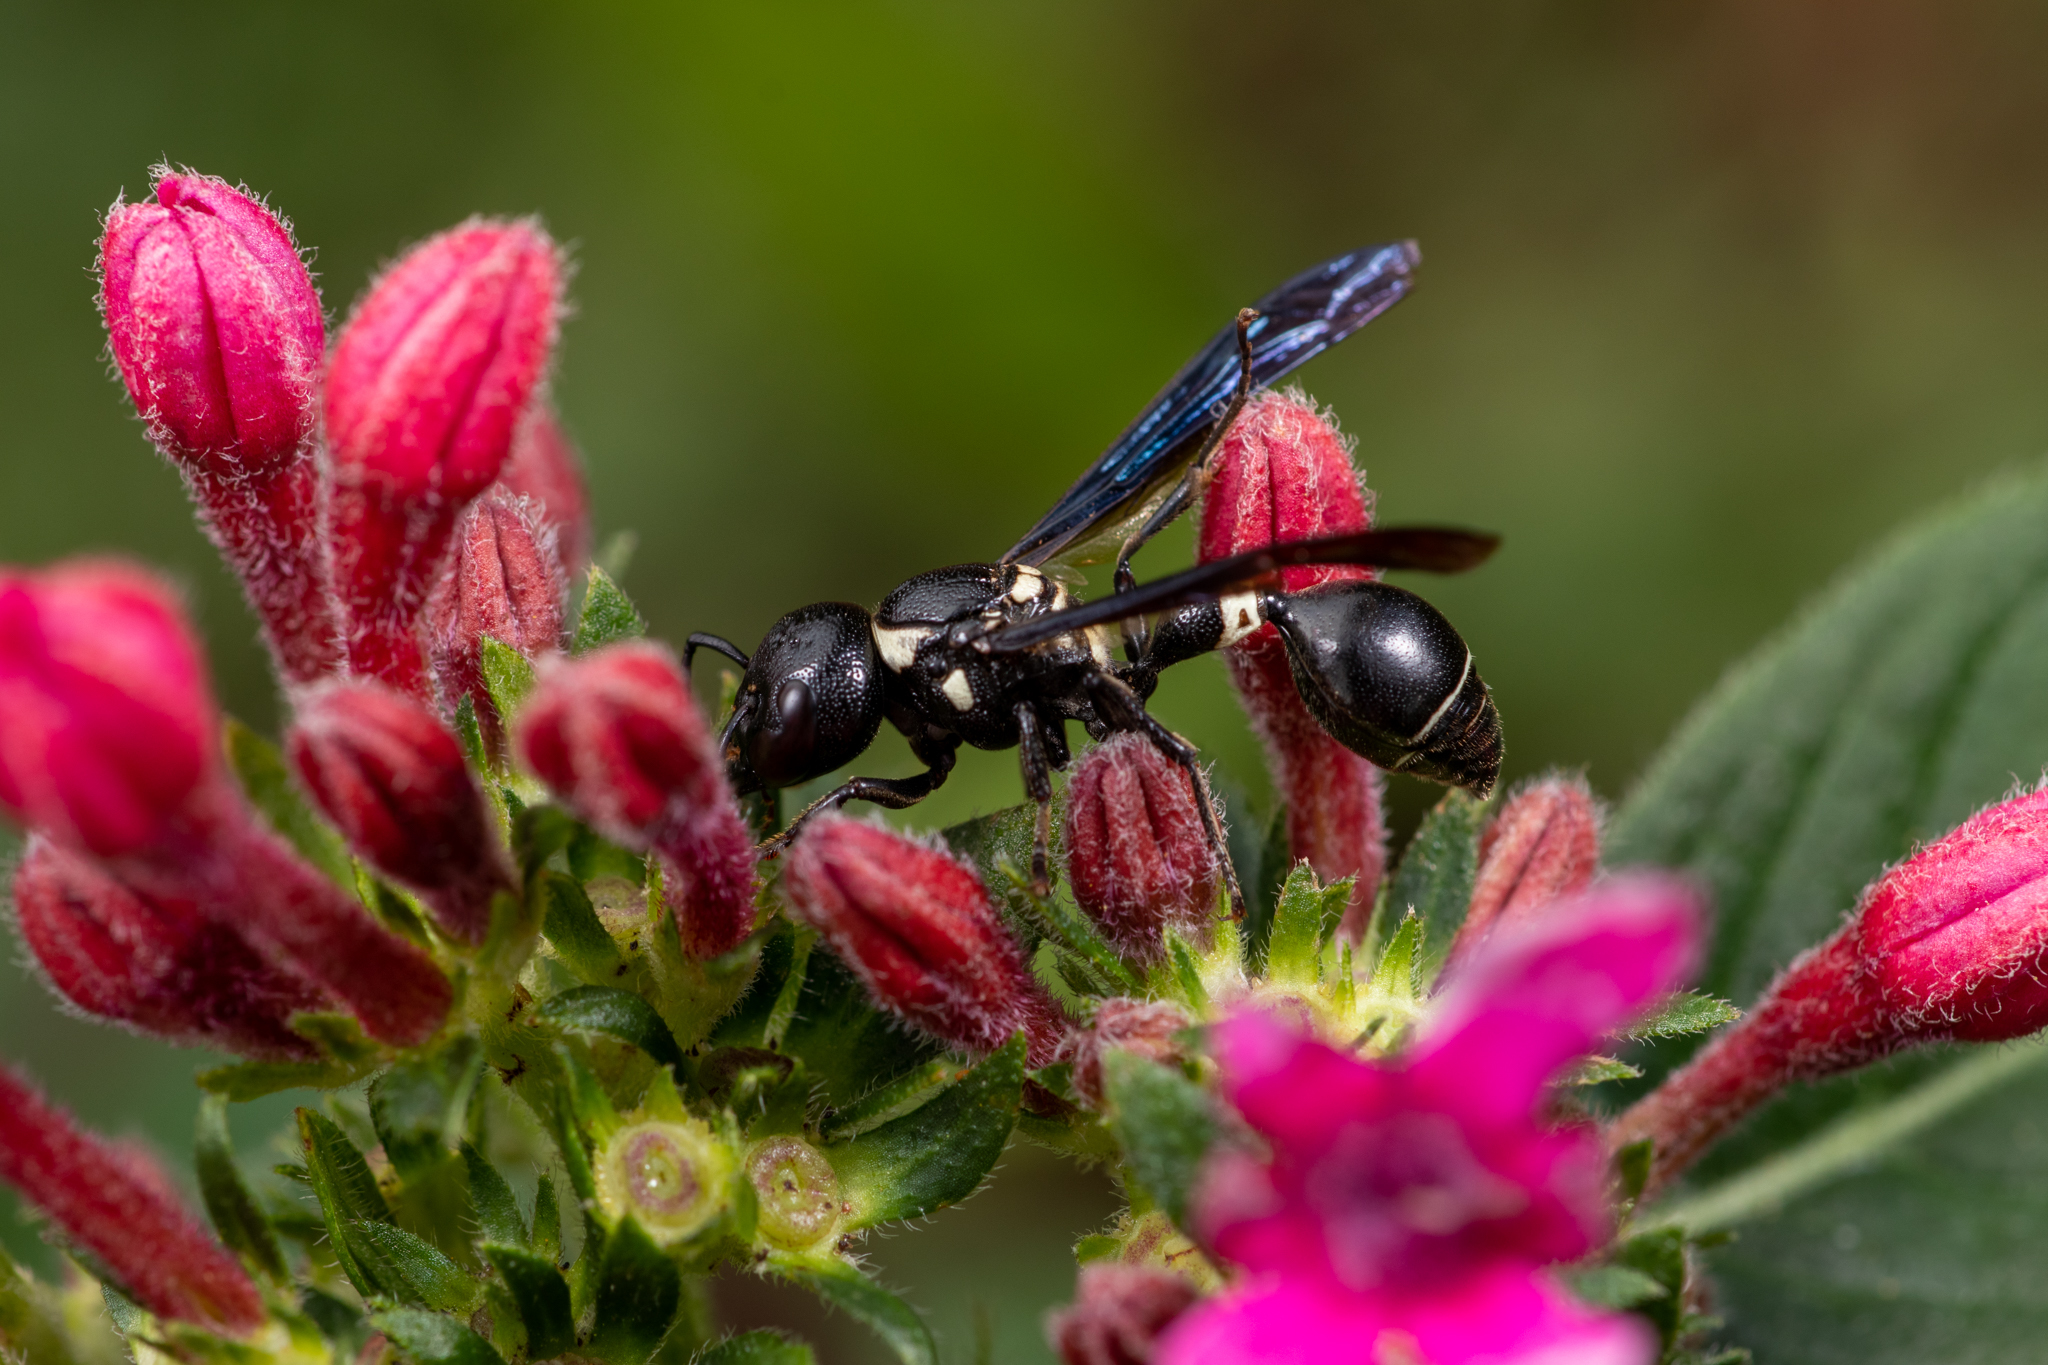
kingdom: Animalia
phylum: Arthropoda
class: Insecta
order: Hymenoptera
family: Eumenidae
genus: Zethus
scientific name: Zethus spinipes
